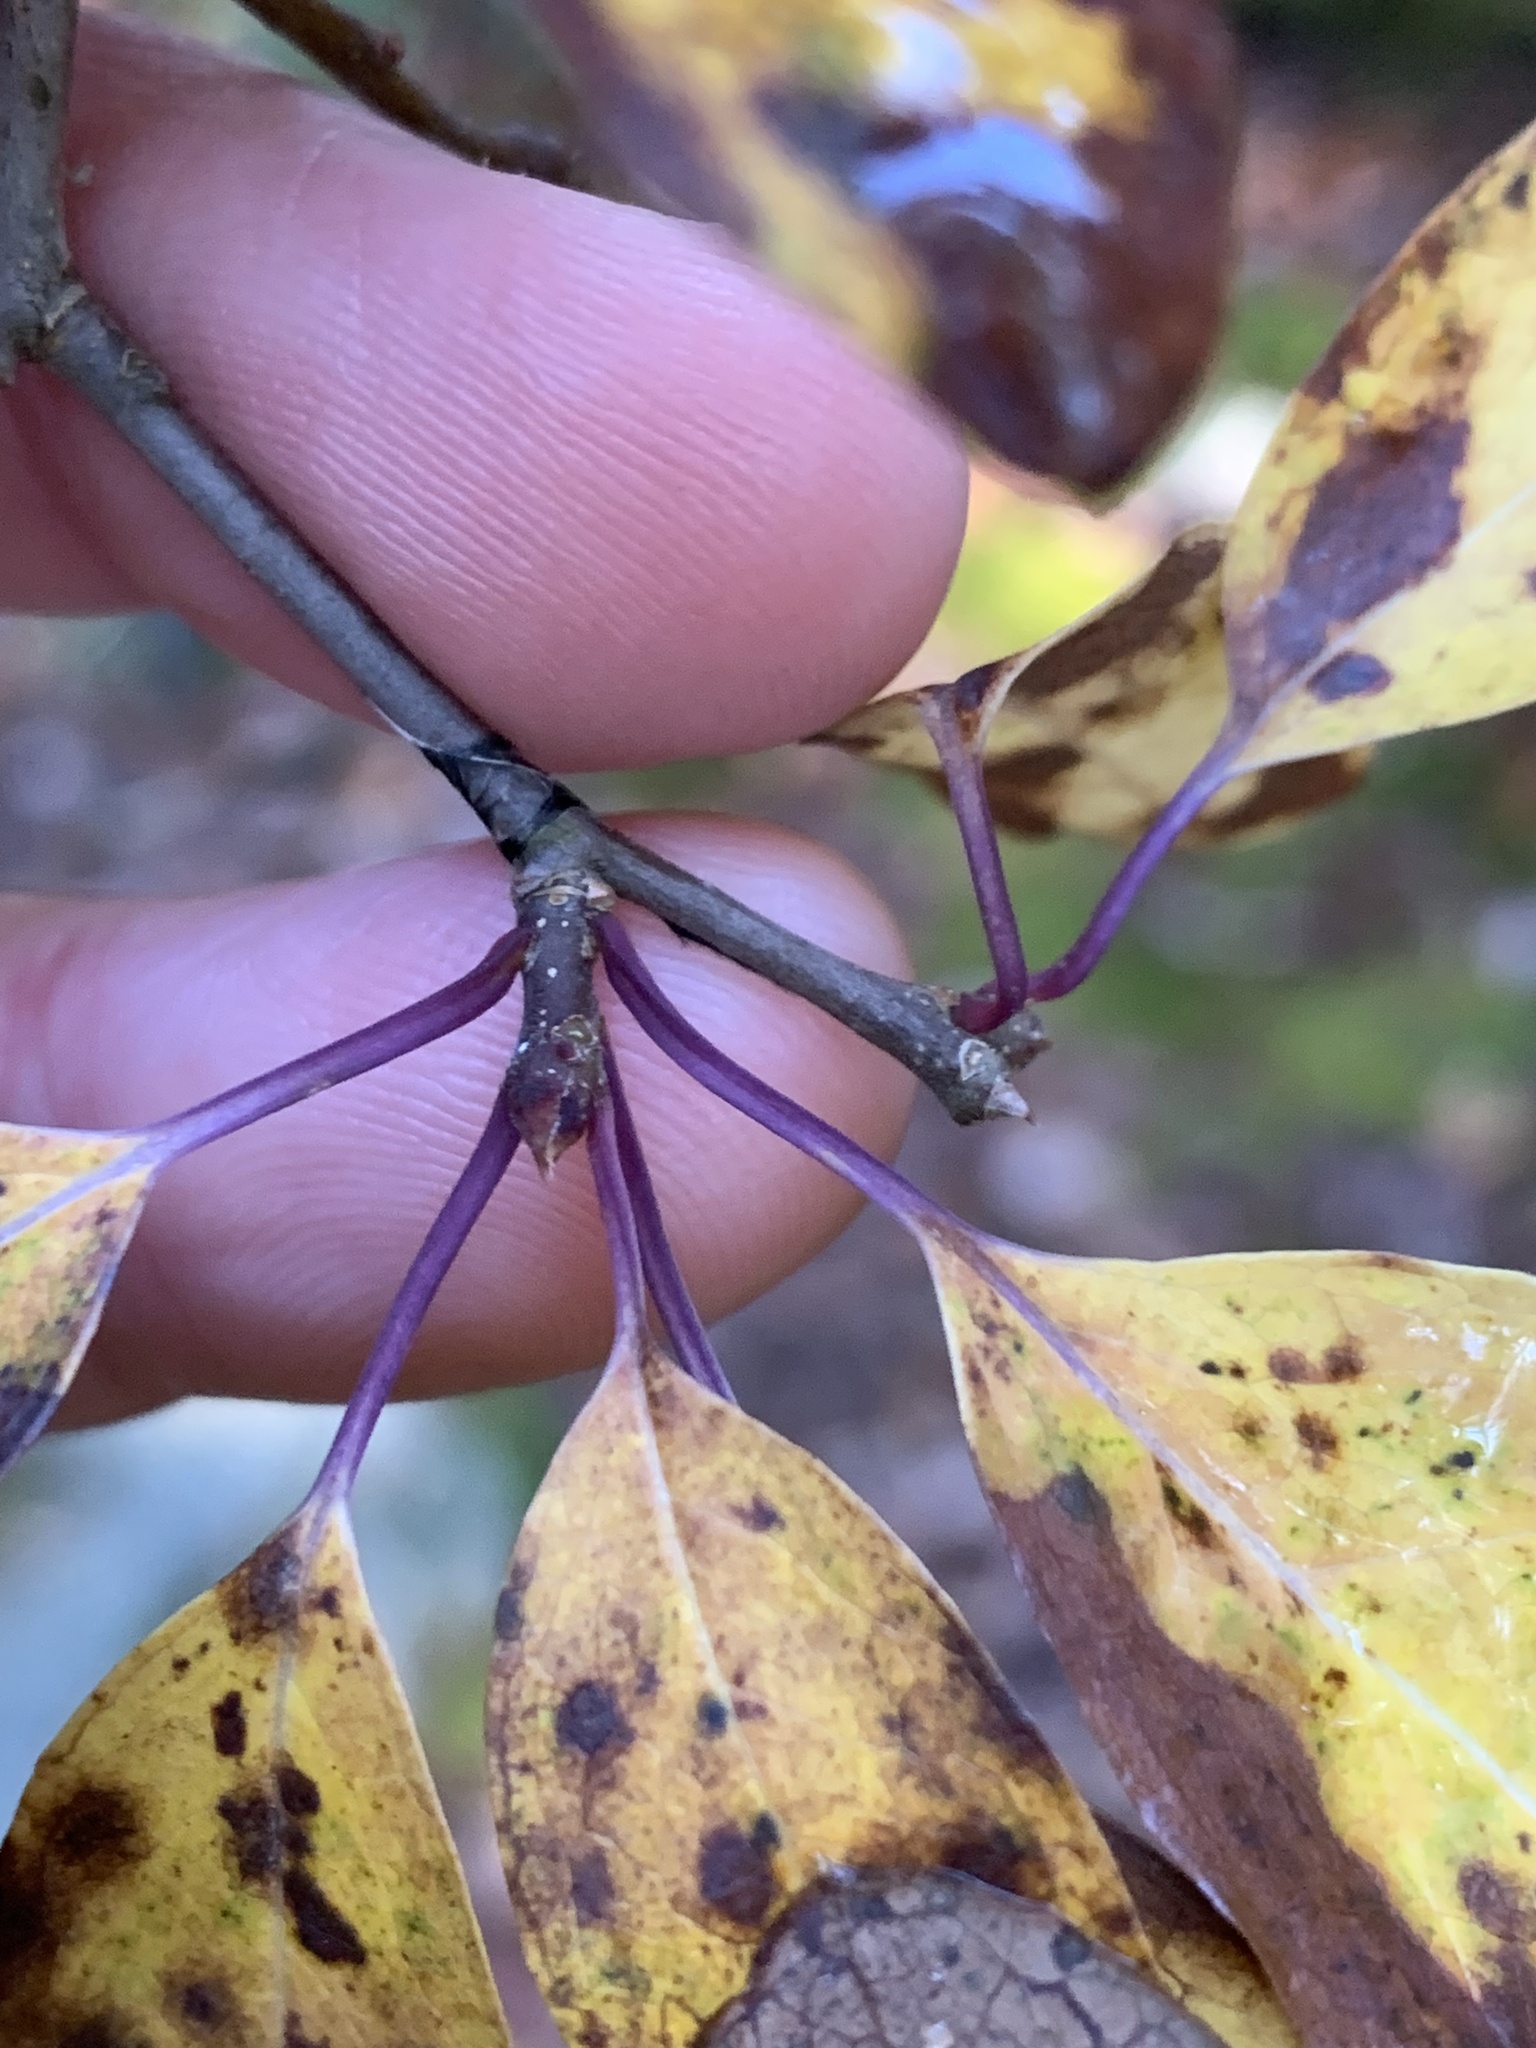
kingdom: Plantae
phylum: Tracheophyta
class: Magnoliopsida
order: Aquifoliales
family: Aquifoliaceae
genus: Ilex
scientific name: Ilex mucronata
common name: Catberry
